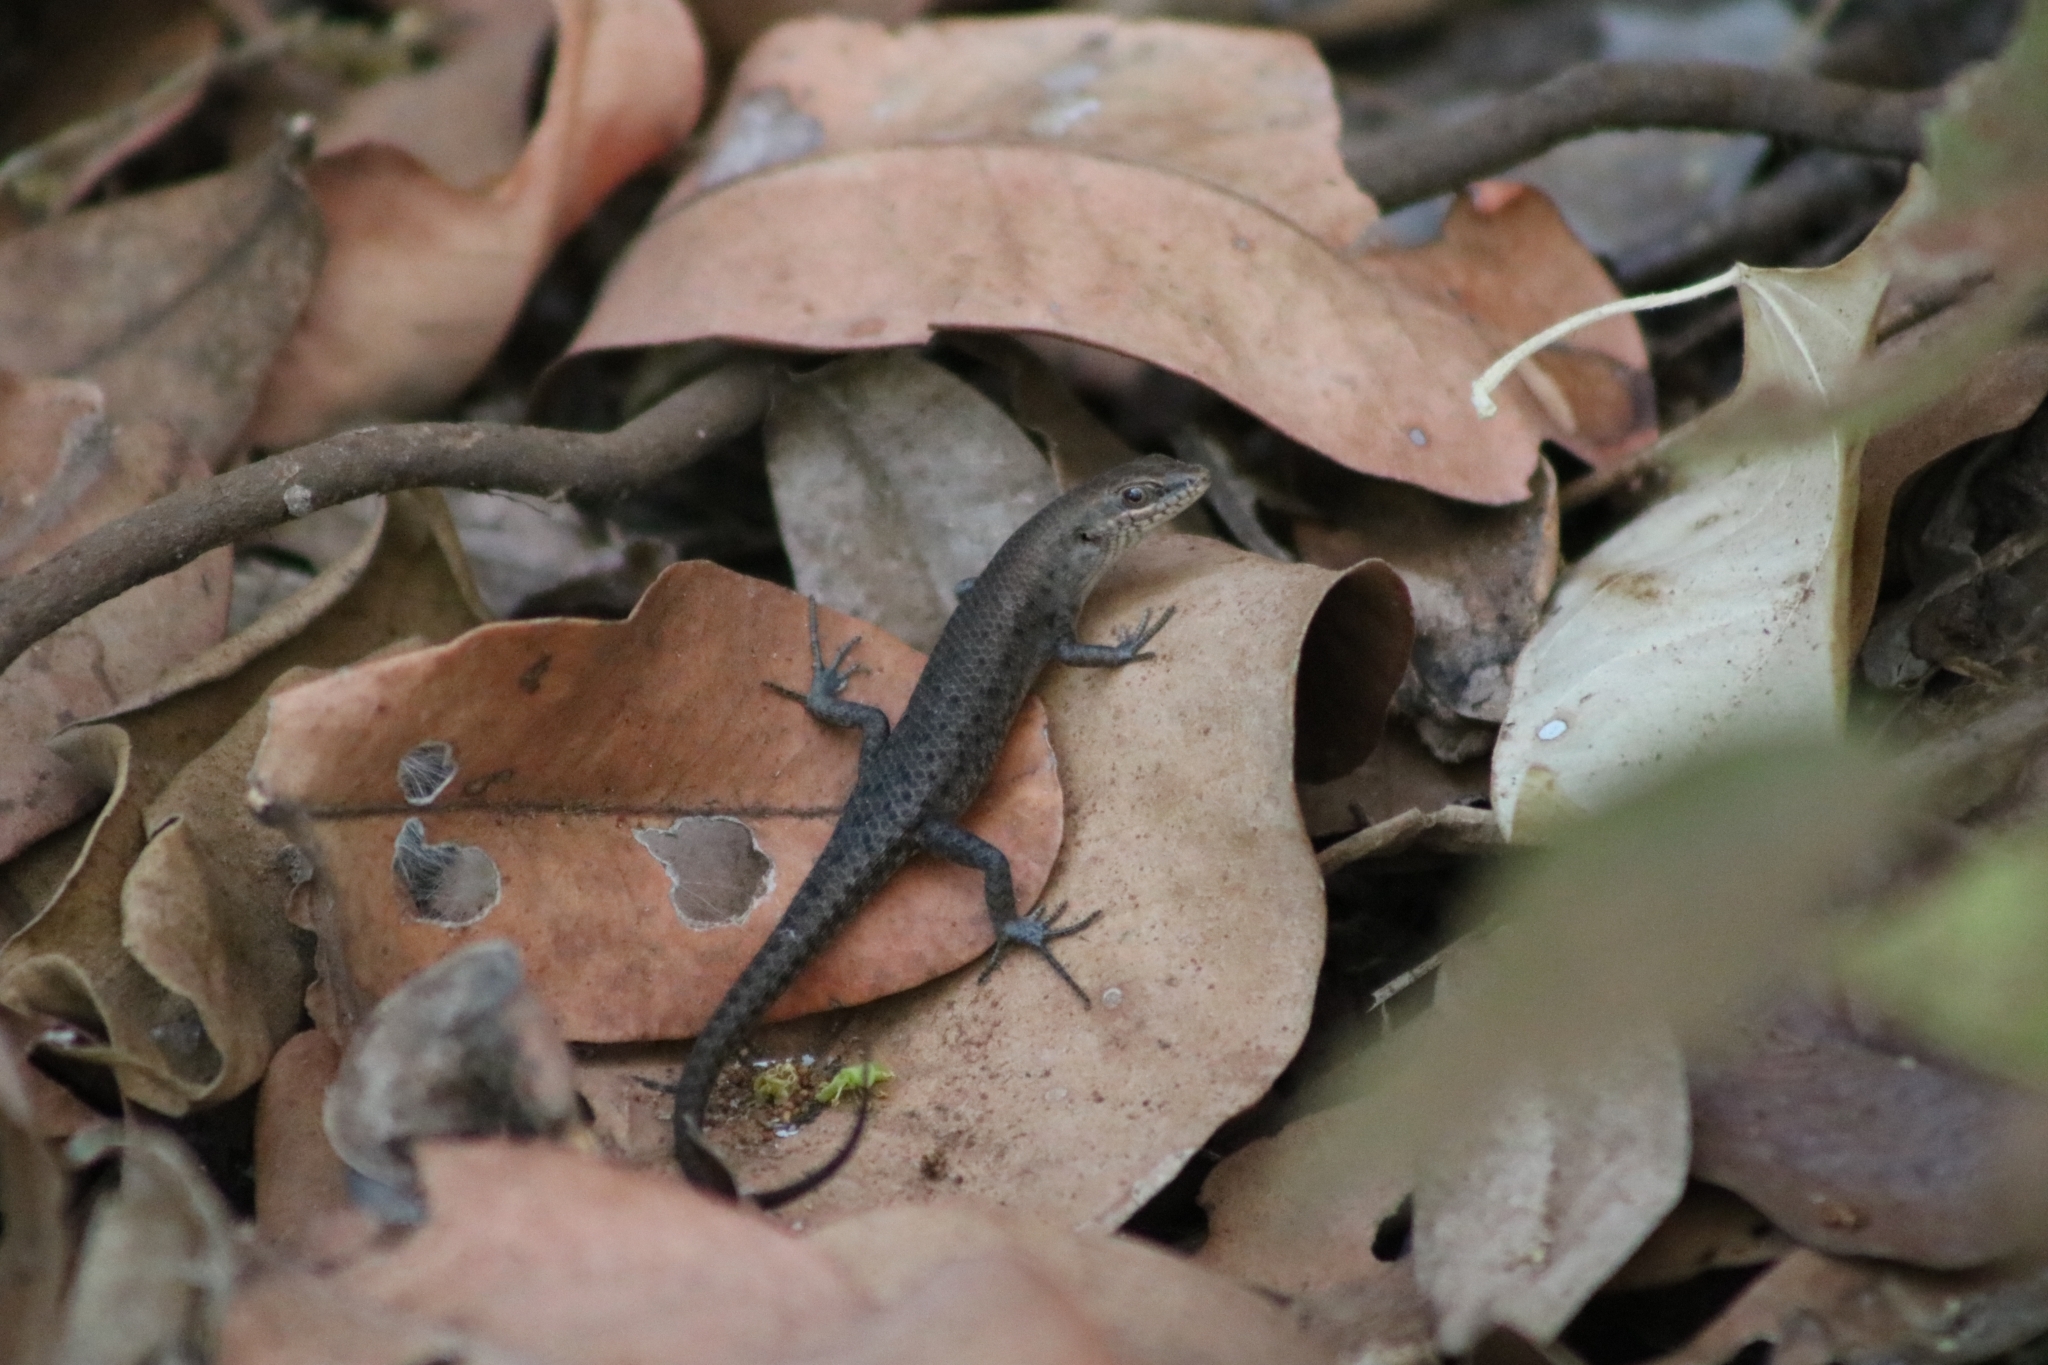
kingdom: Animalia
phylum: Chordata
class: Squamata
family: Scincidae
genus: Carlia
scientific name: Carlia amax
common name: Bauxite rainbow-skink
